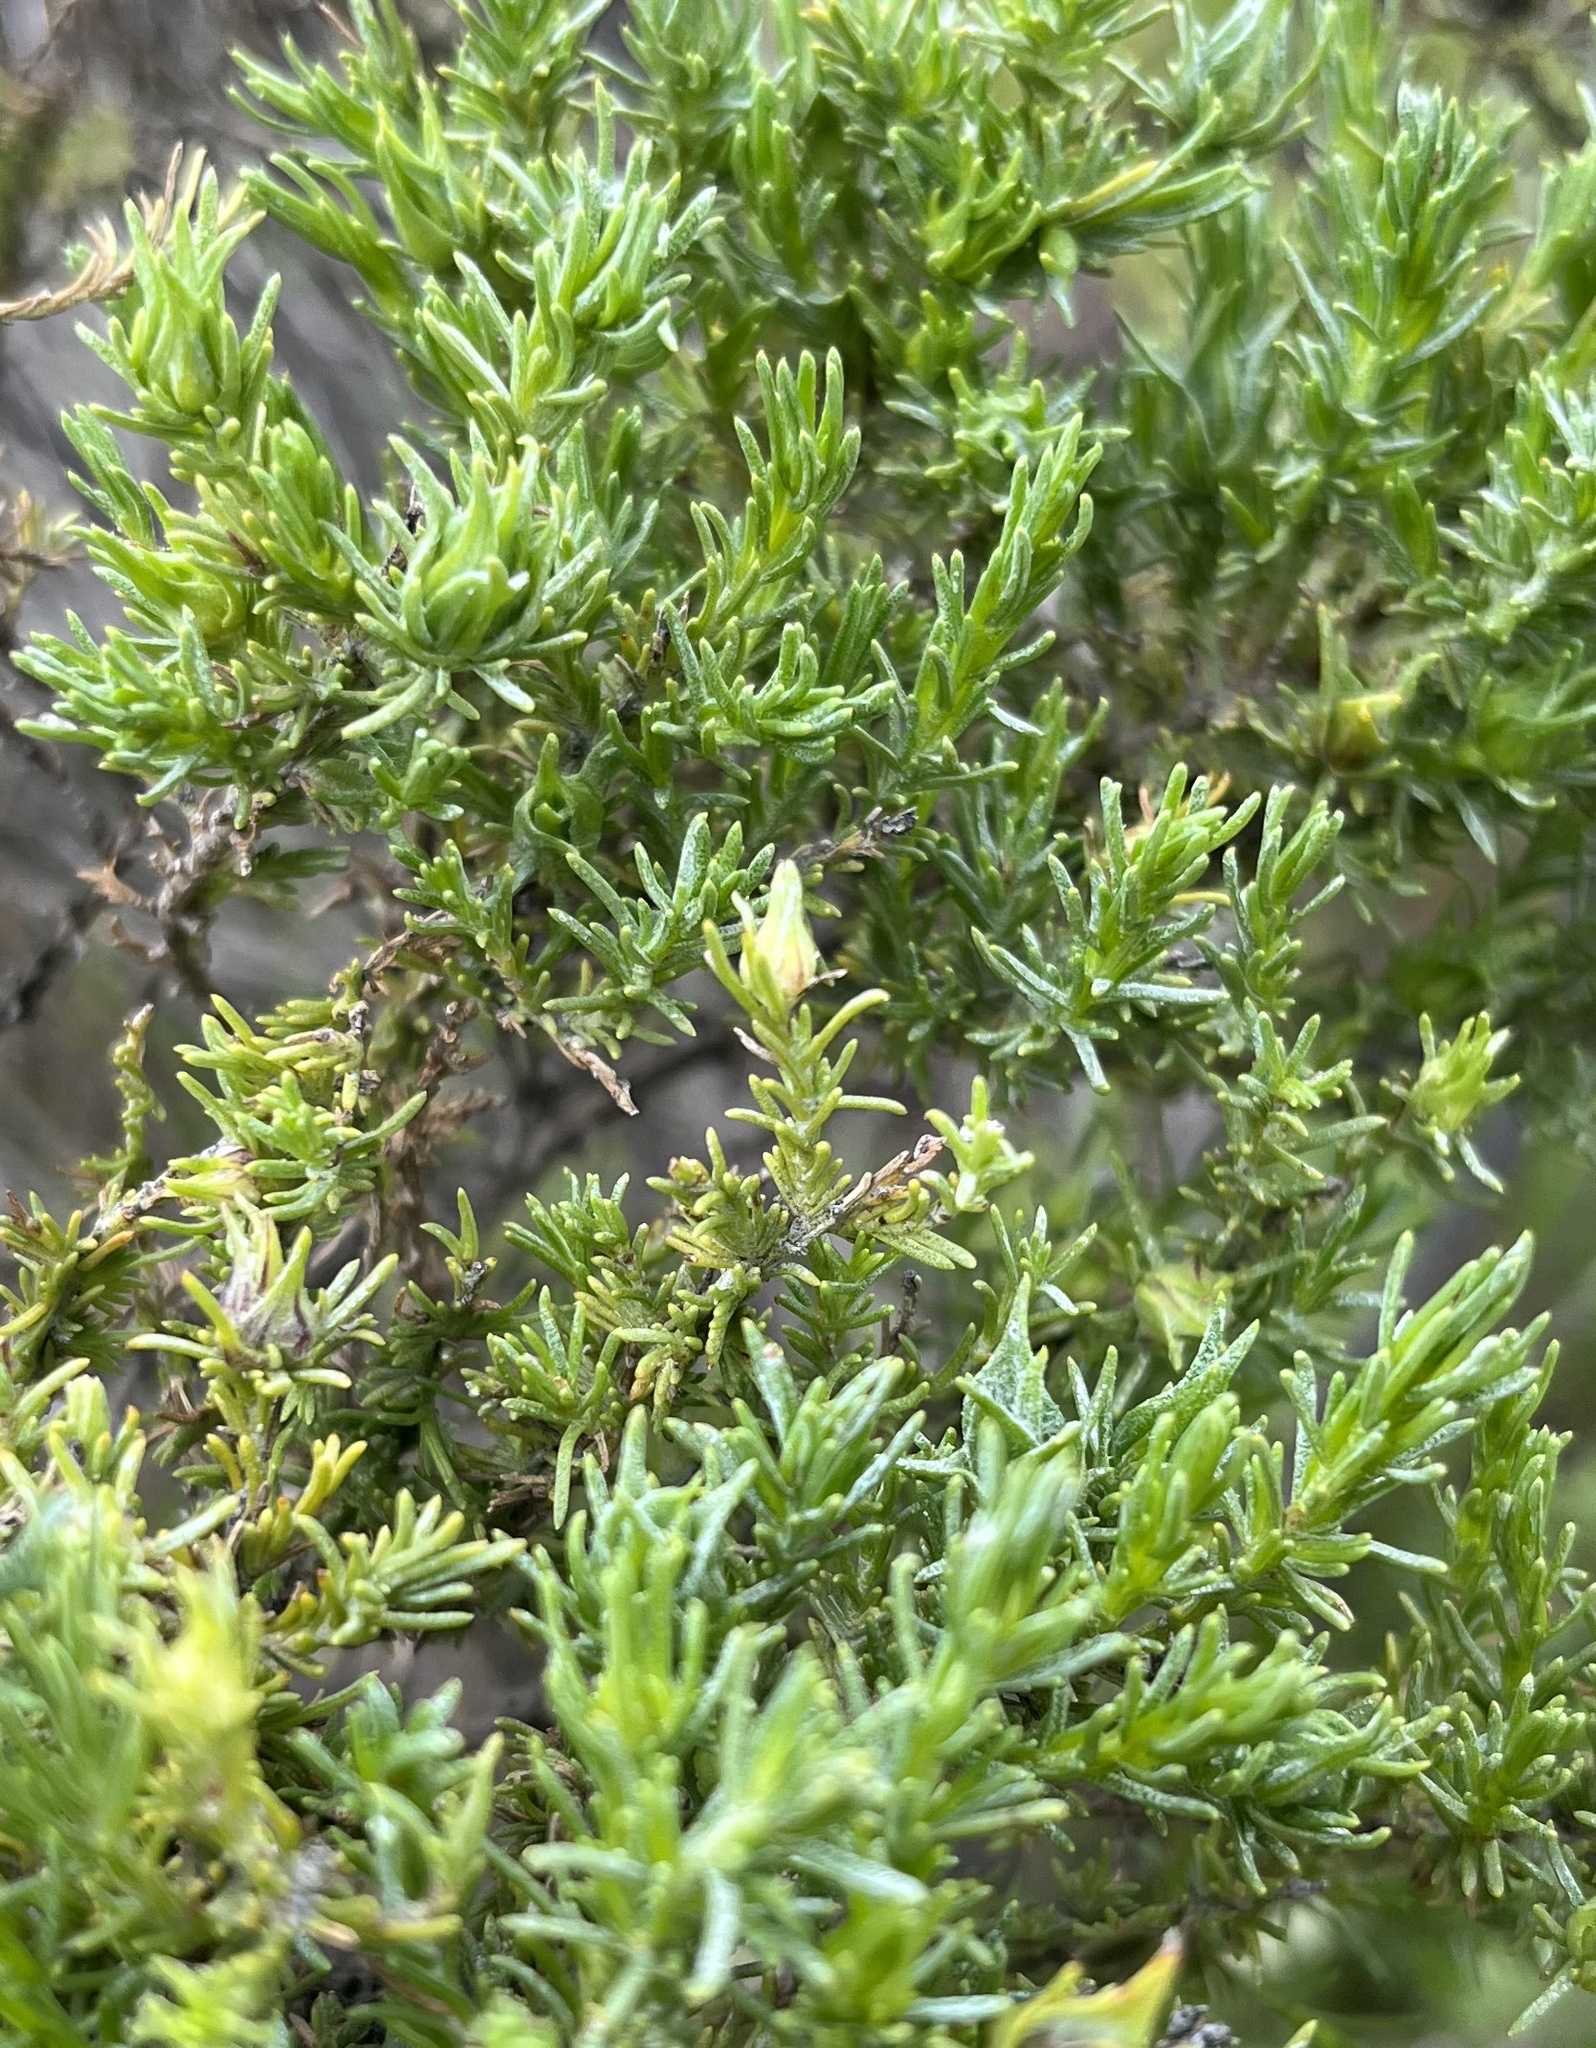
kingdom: Plantae
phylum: Tracheophyta
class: Magnoliopsida
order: Asterales
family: Asteraceae
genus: Ericameria
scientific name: Ericameria ericoides
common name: California goldenbush
